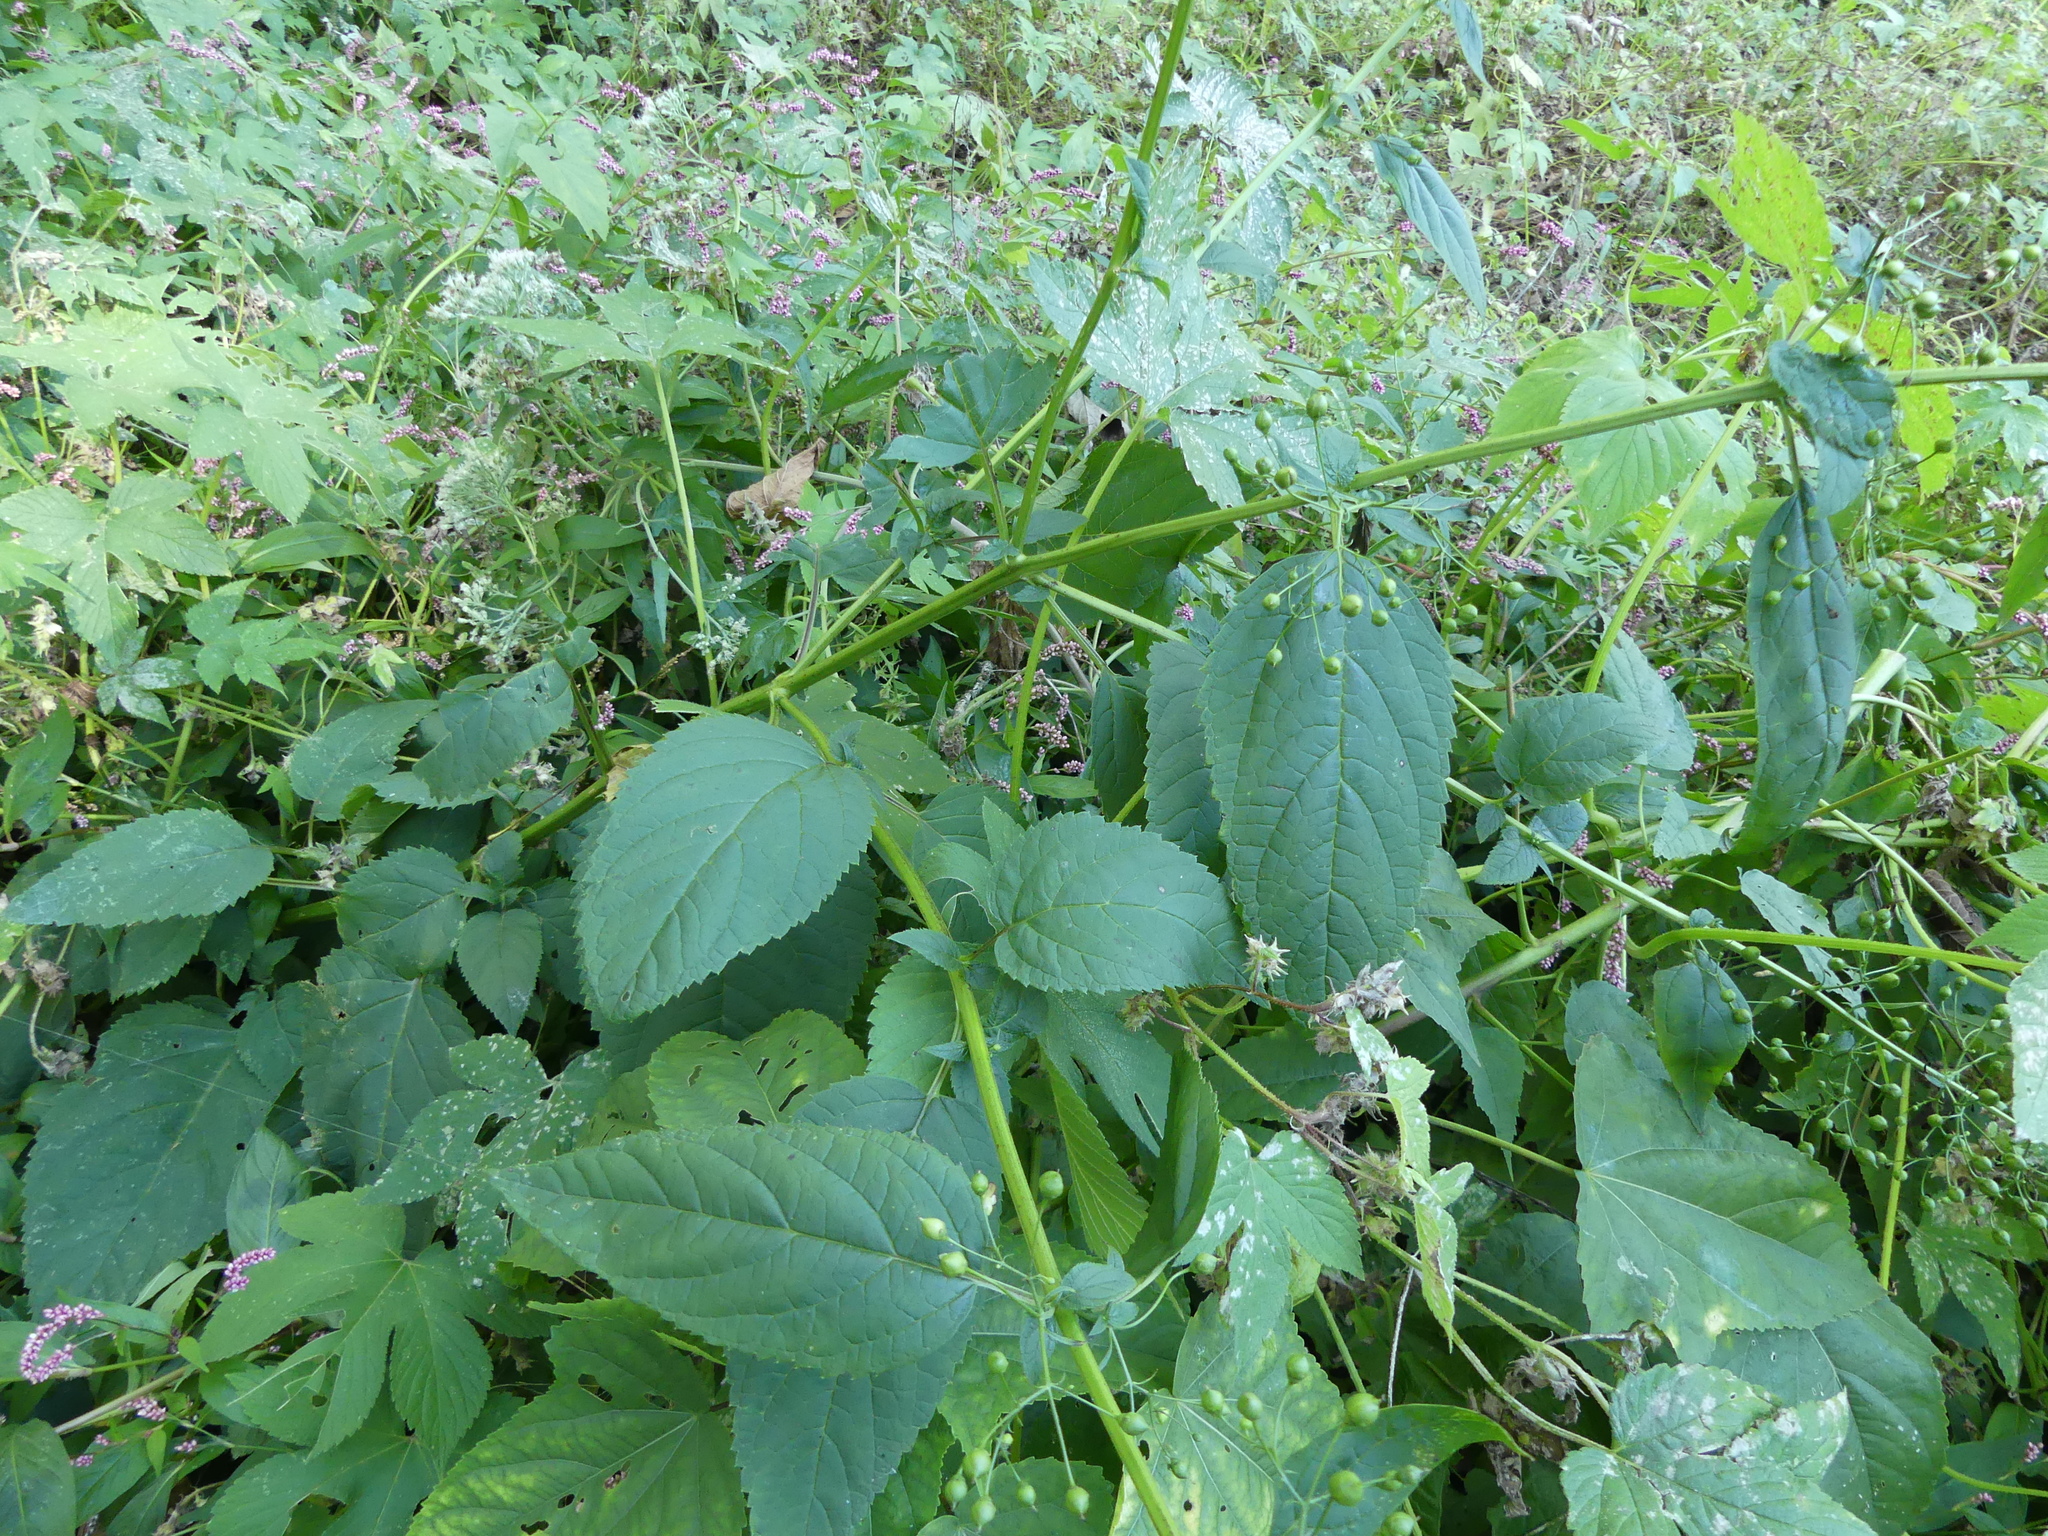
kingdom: Plantae
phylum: Tracheophyta
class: Magnoliopsida
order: Lamiales
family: Scrophulariaceae
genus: Scrophularia
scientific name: Scrophularia marilandica
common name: Eastern figwort
